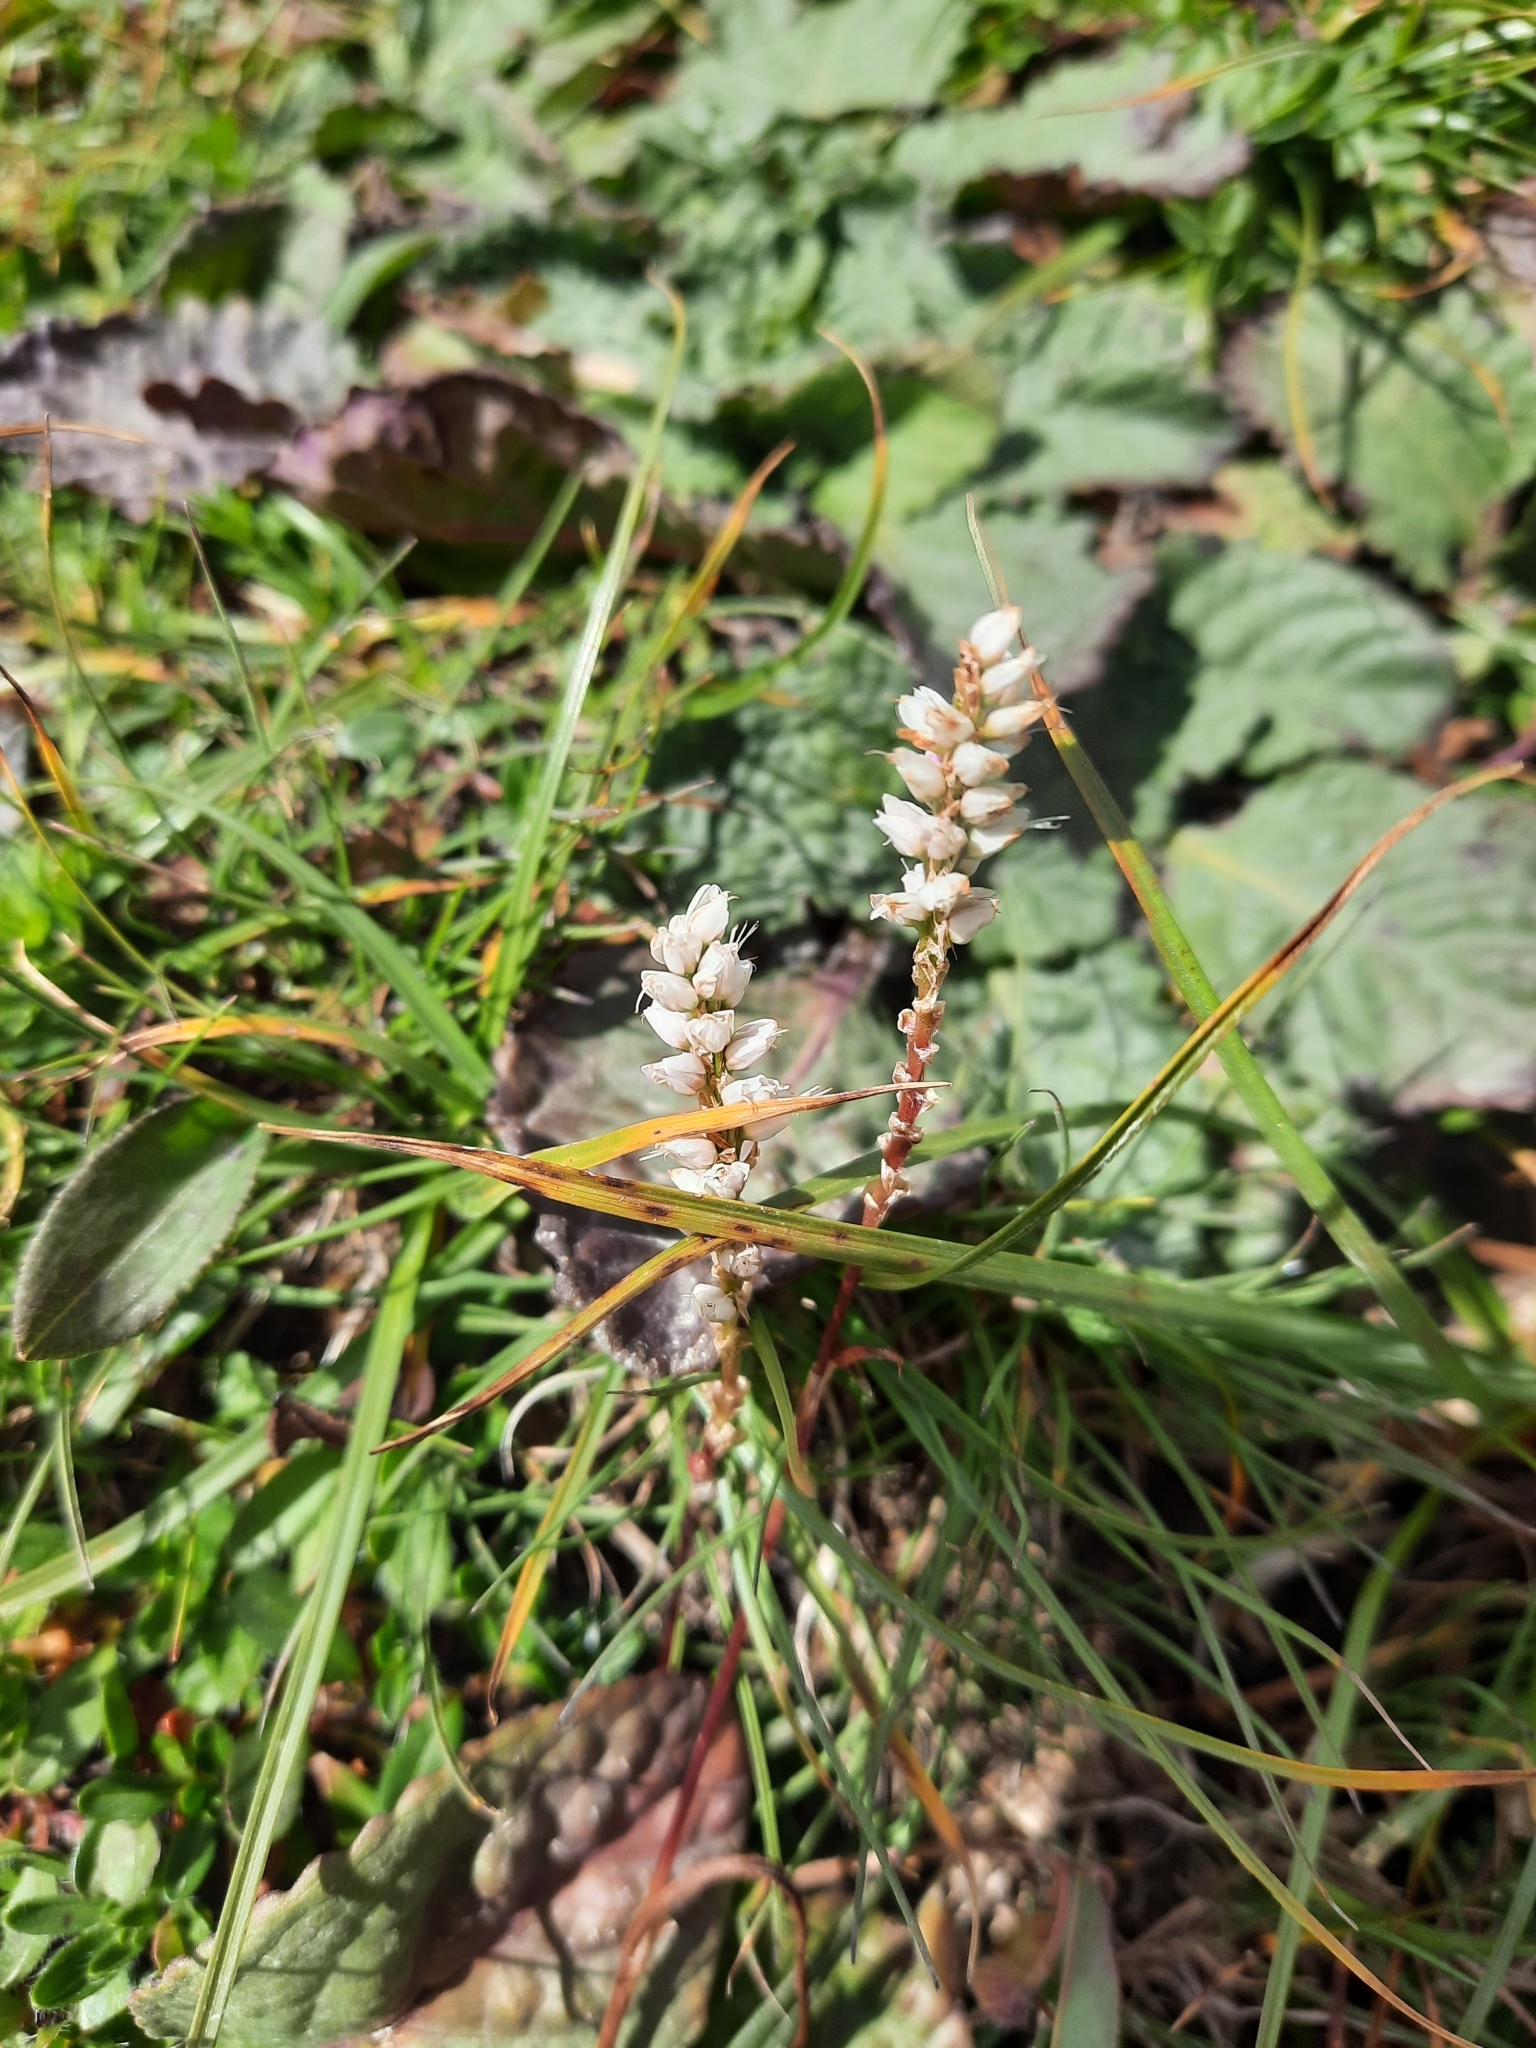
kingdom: Plantae
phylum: Tracheophyta
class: Magnoliopsida
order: Caryophyllales
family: Polygonaceae
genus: Bistorta
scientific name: Bistorta vivipara
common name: Alpine bistort
